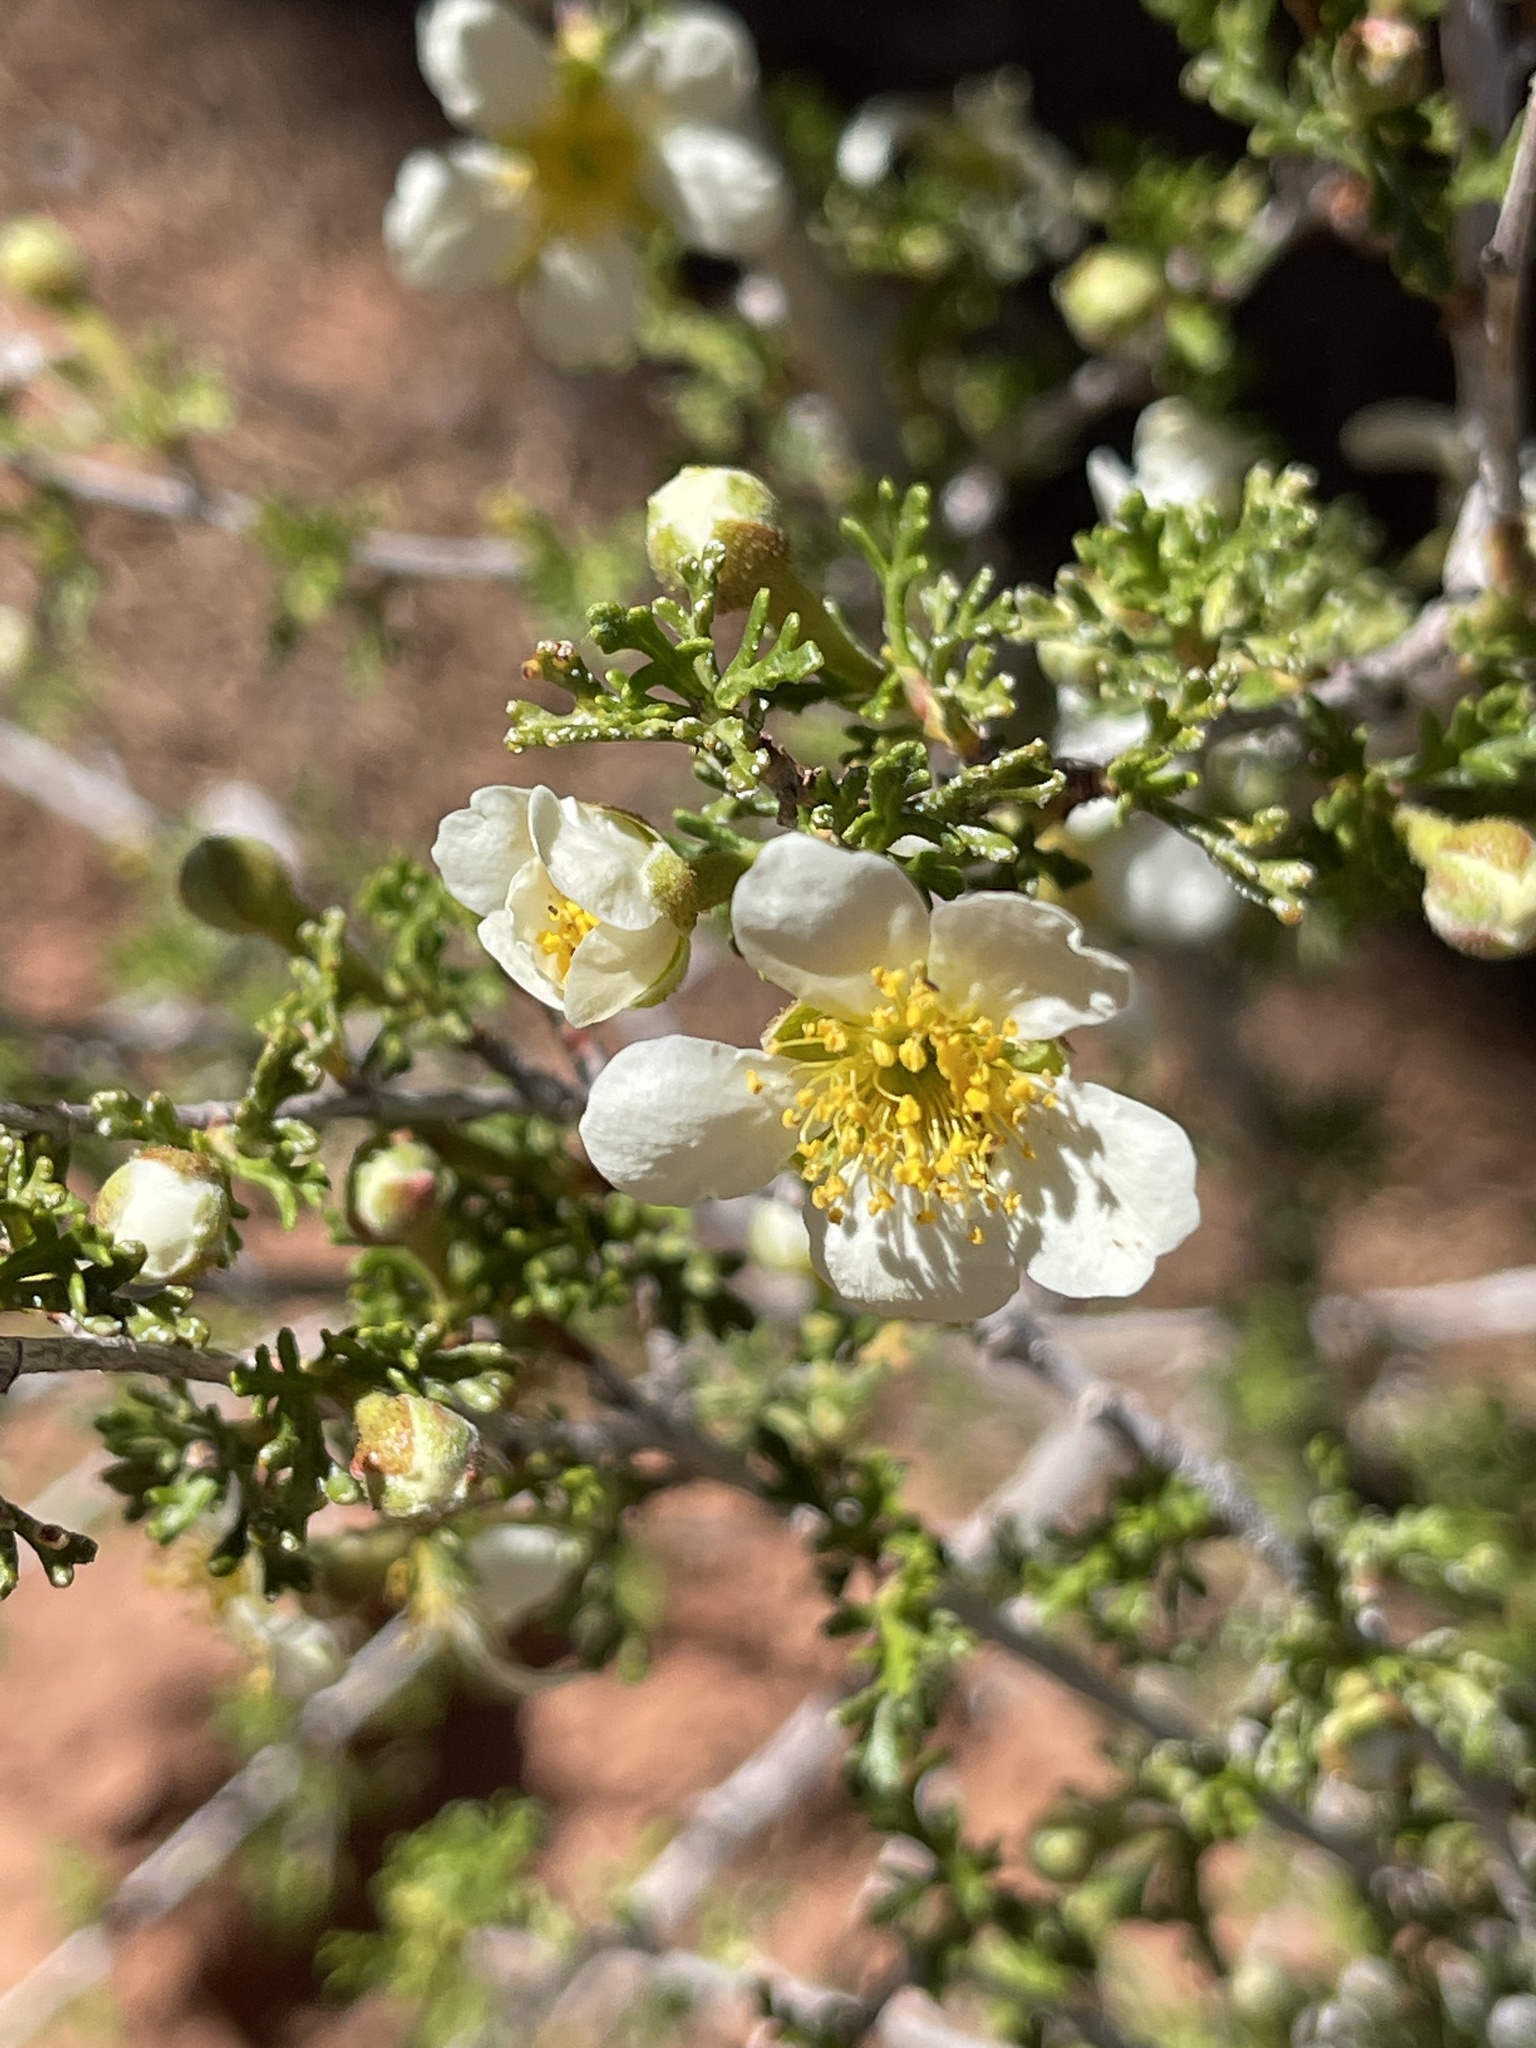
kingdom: Plantae
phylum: Tracheophyta
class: Magnoliopsida
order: Rosales
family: Rosaceae
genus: Purshia
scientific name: Purshia stansburiana
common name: Stansbury's cliffrose
